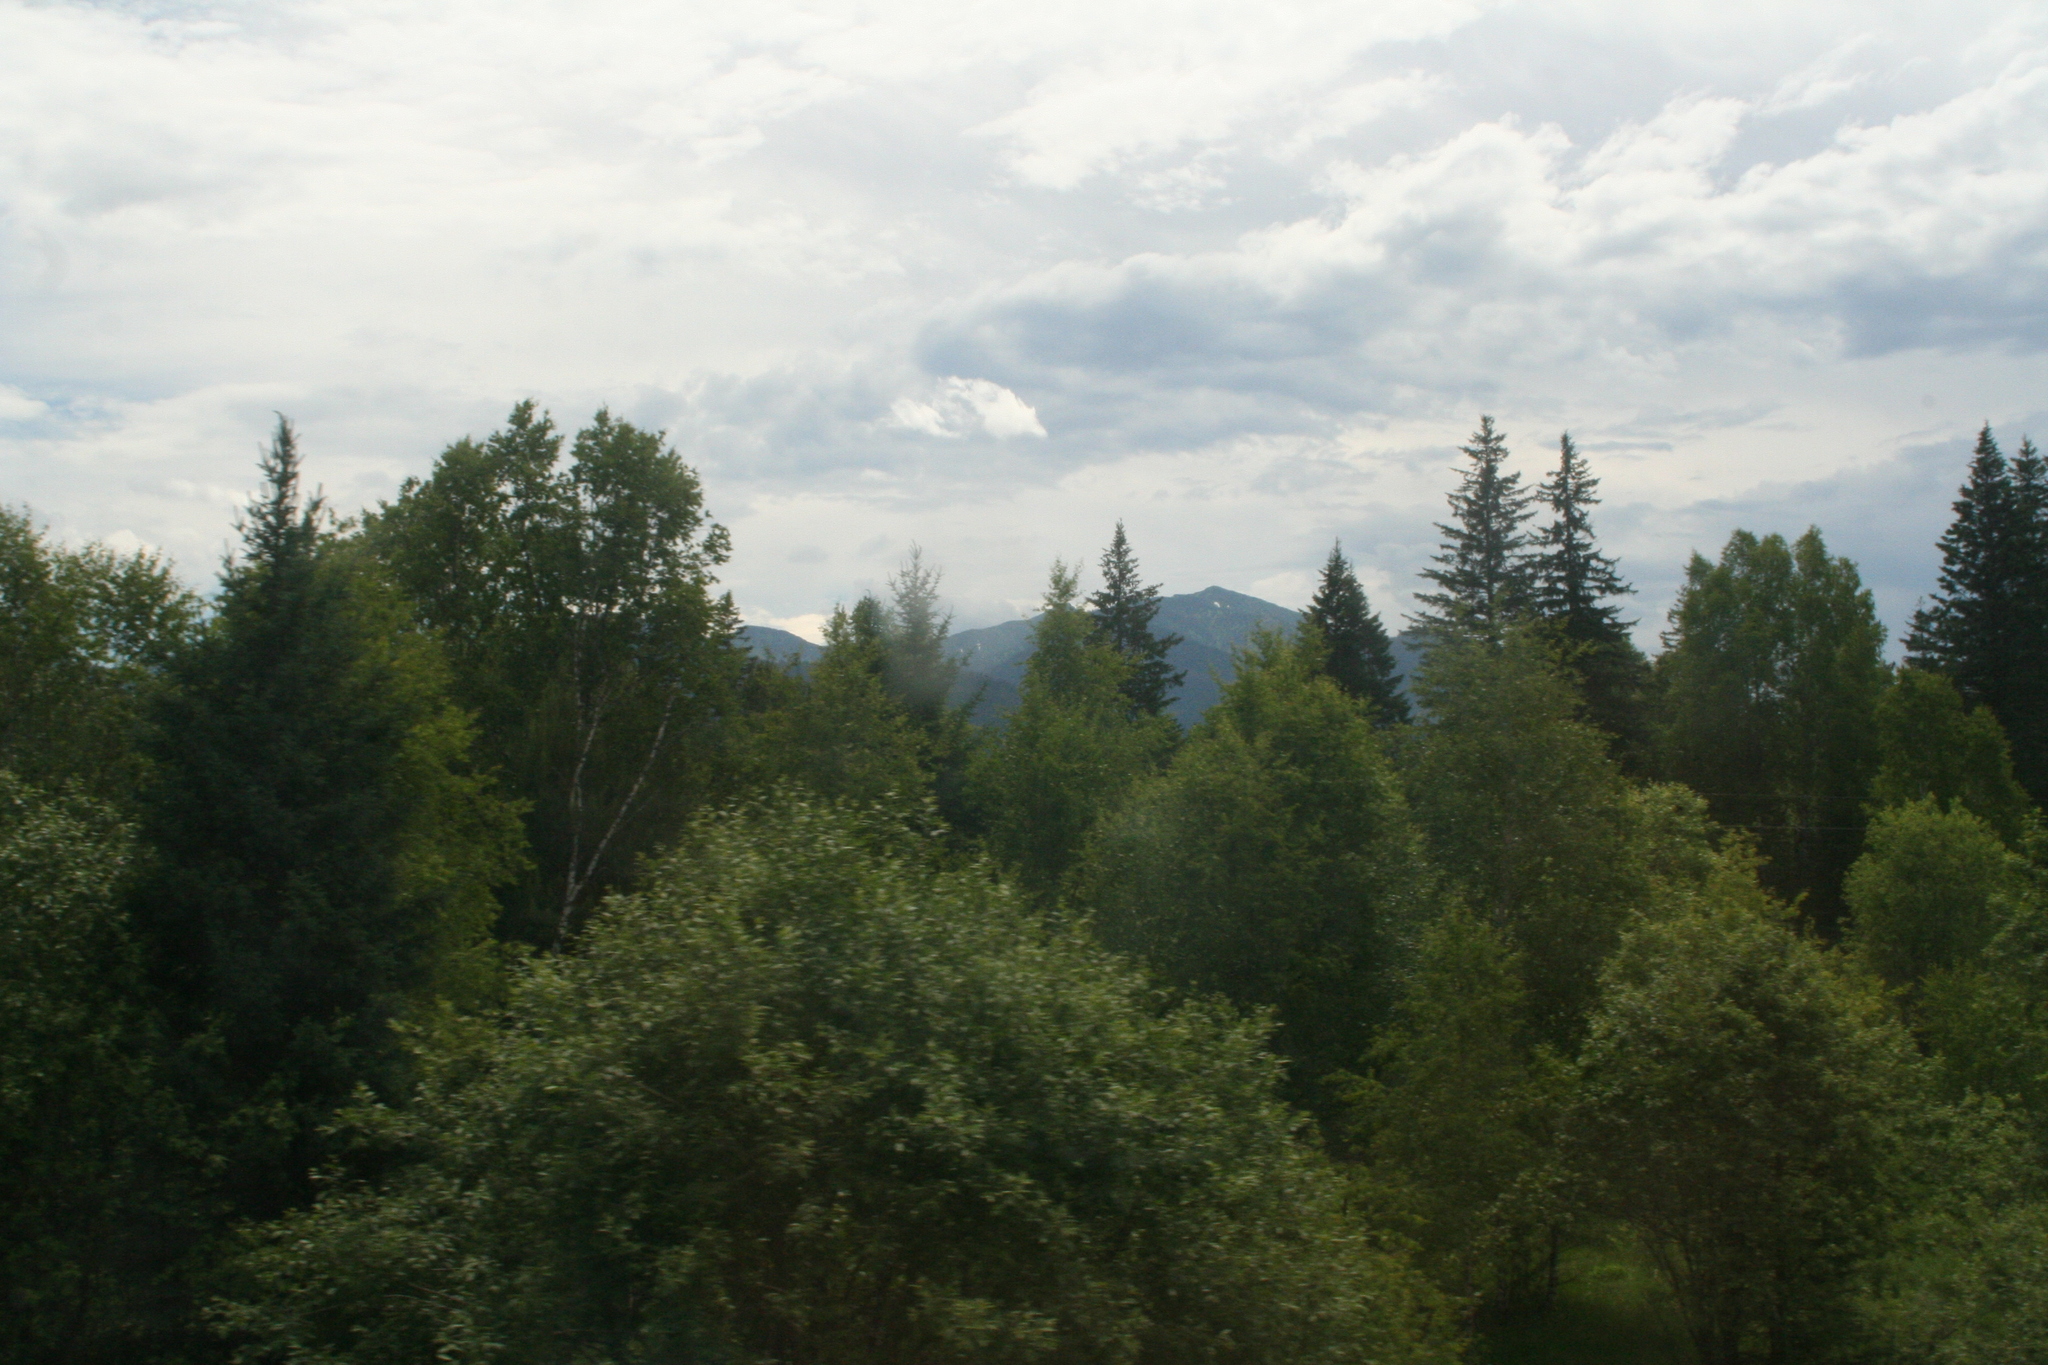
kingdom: Plantae
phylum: Tracheophyta
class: Pinopsida
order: Pinales
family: Pinaceae
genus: Picea
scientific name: Picea obovata
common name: Siberian spruce
